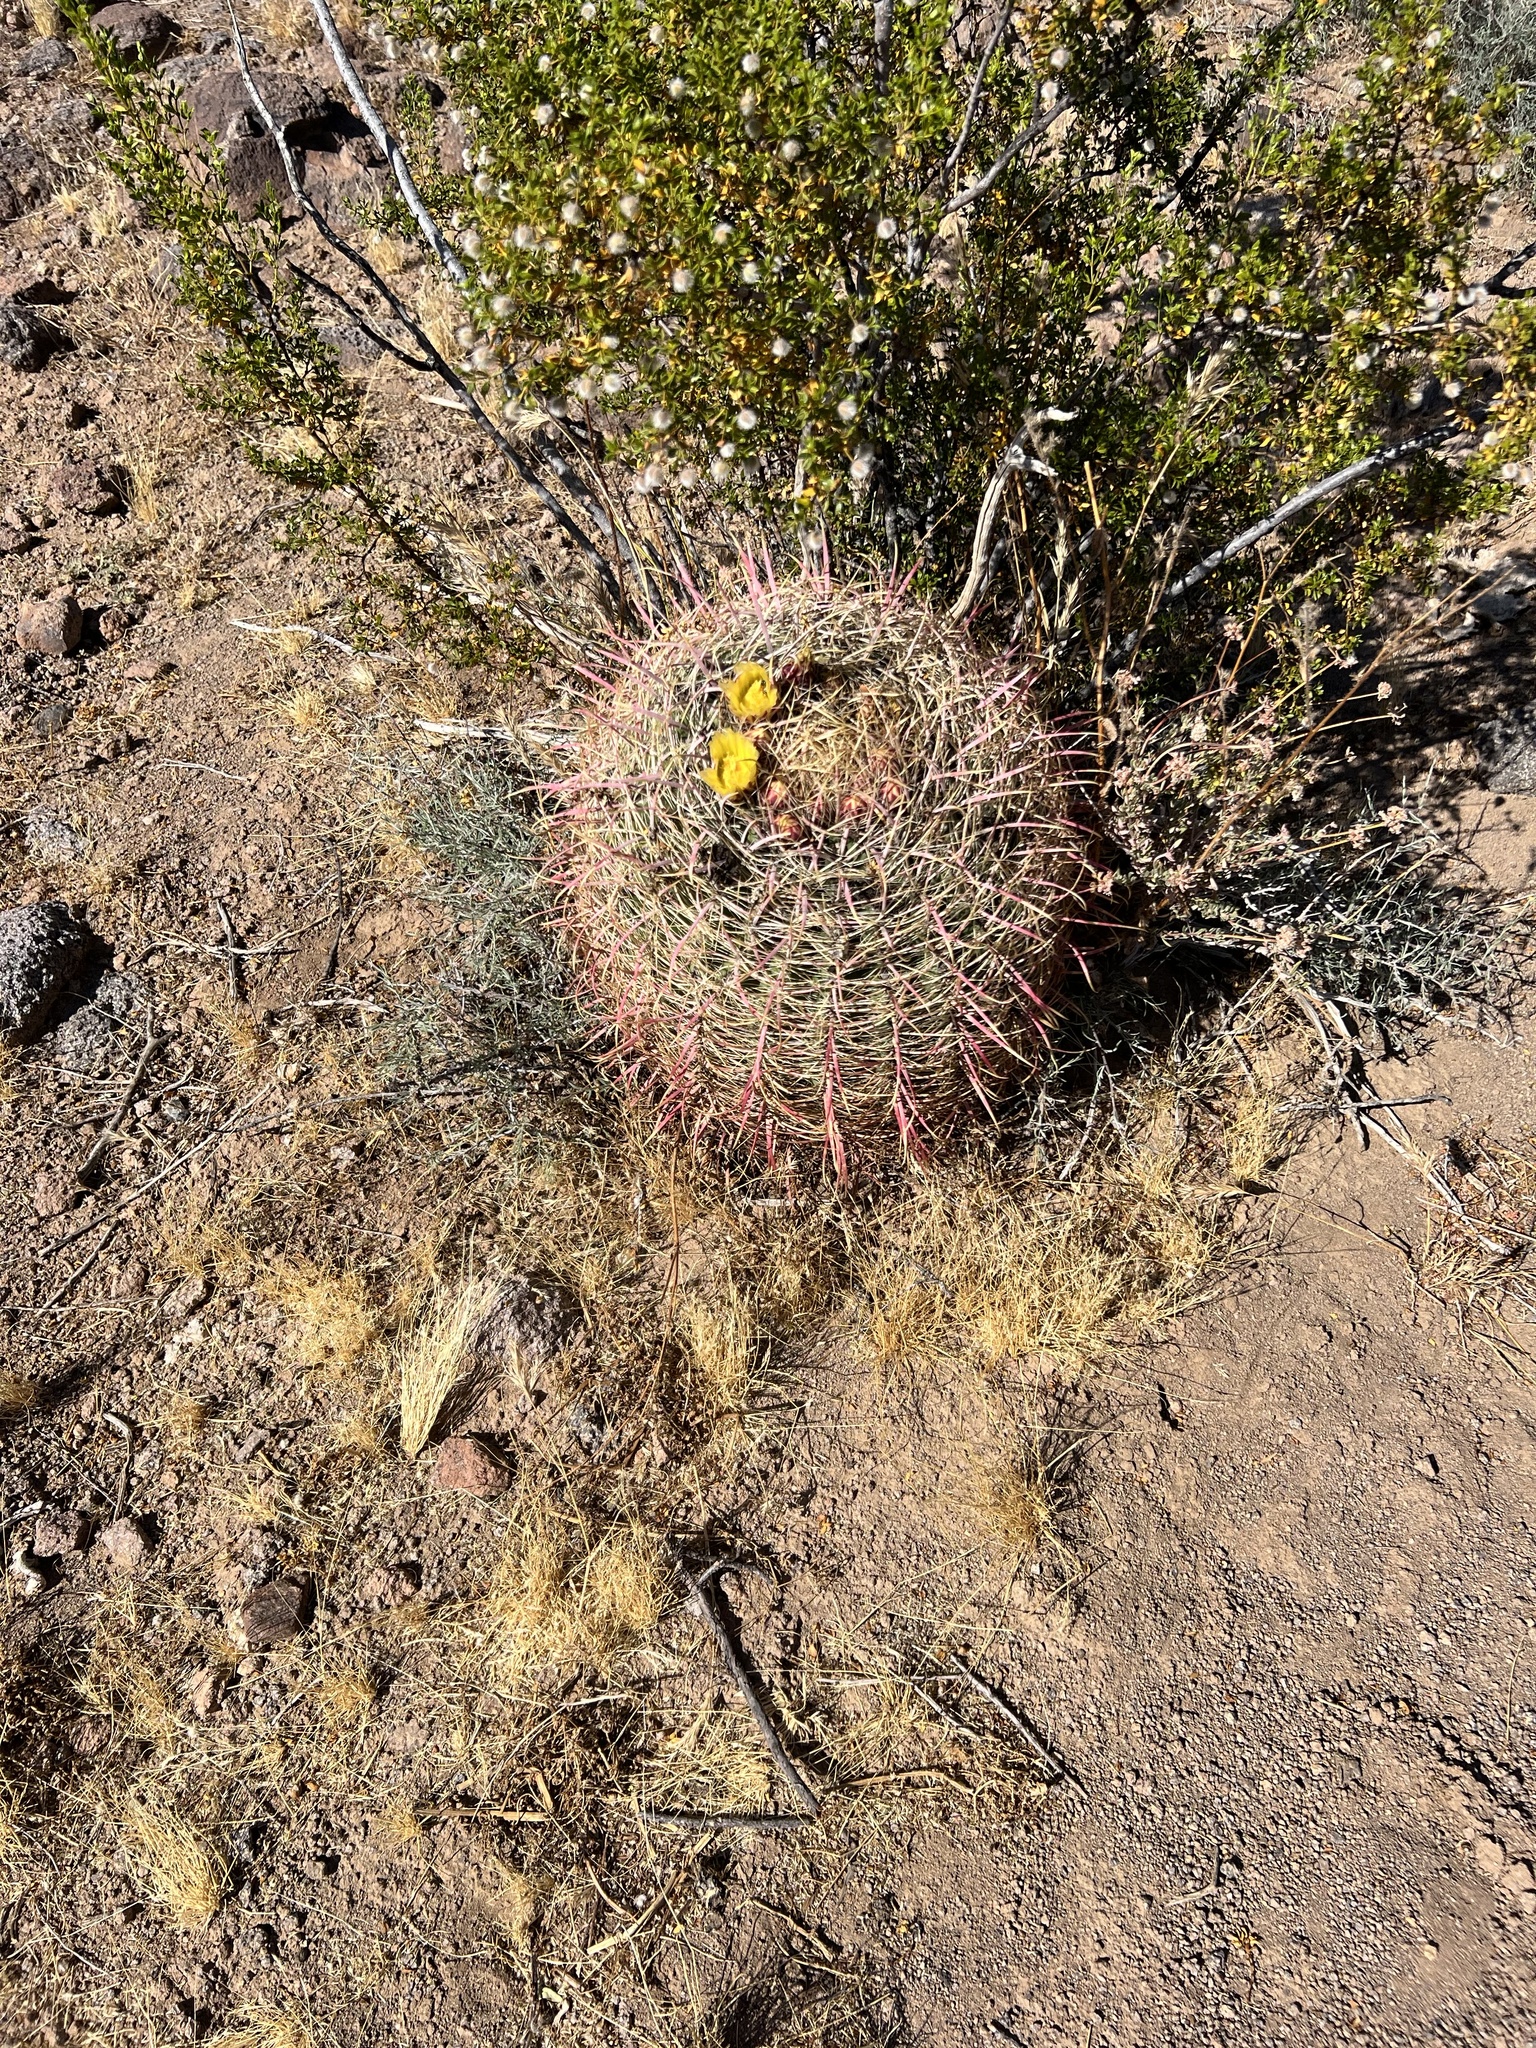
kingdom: Plantae
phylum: Tracheophyta
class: Magnoliopsida
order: Caryophyllales
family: Cactaceae
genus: Ferocactus
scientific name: Ferocactus cylindraceus
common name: California barrel cactus
